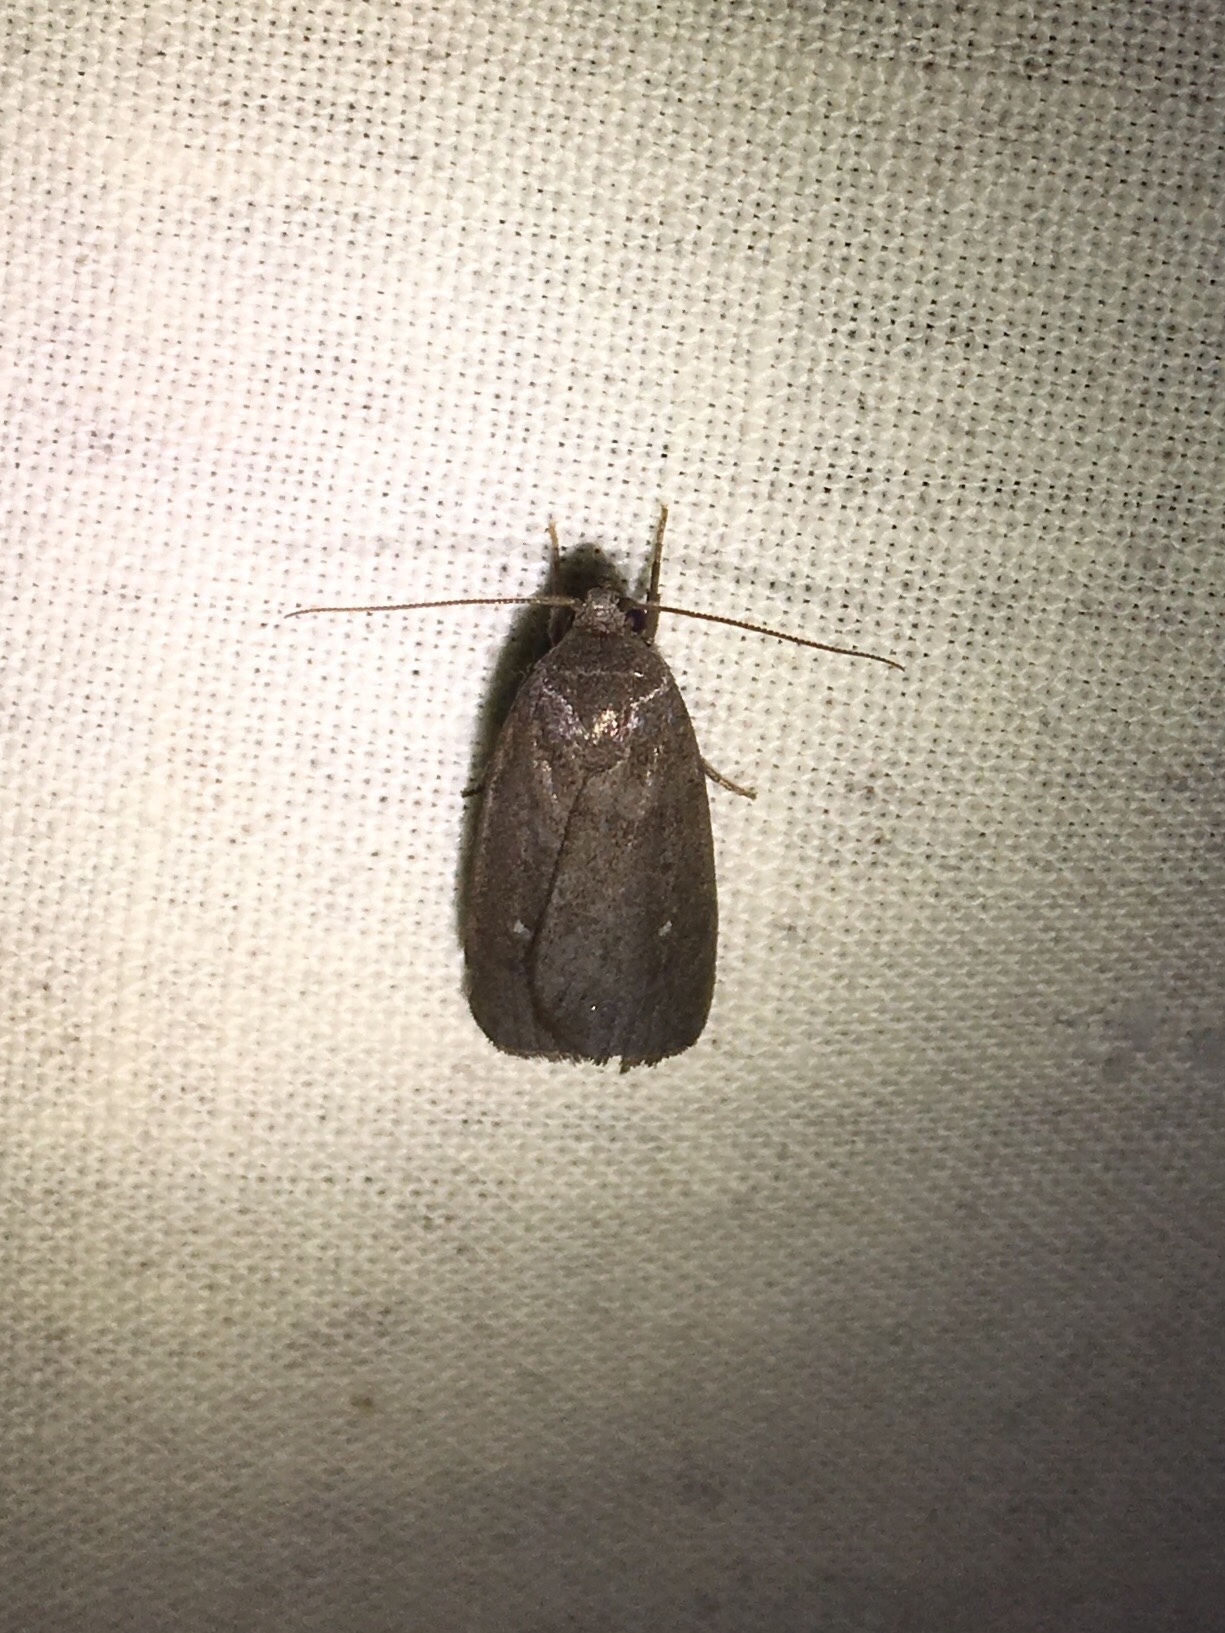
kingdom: Animalia
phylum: Arthropoda
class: Insecta
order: Lepidoptera
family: Noctuidae
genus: Proxenus
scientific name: Proxenus miranda
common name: Miranda moth
